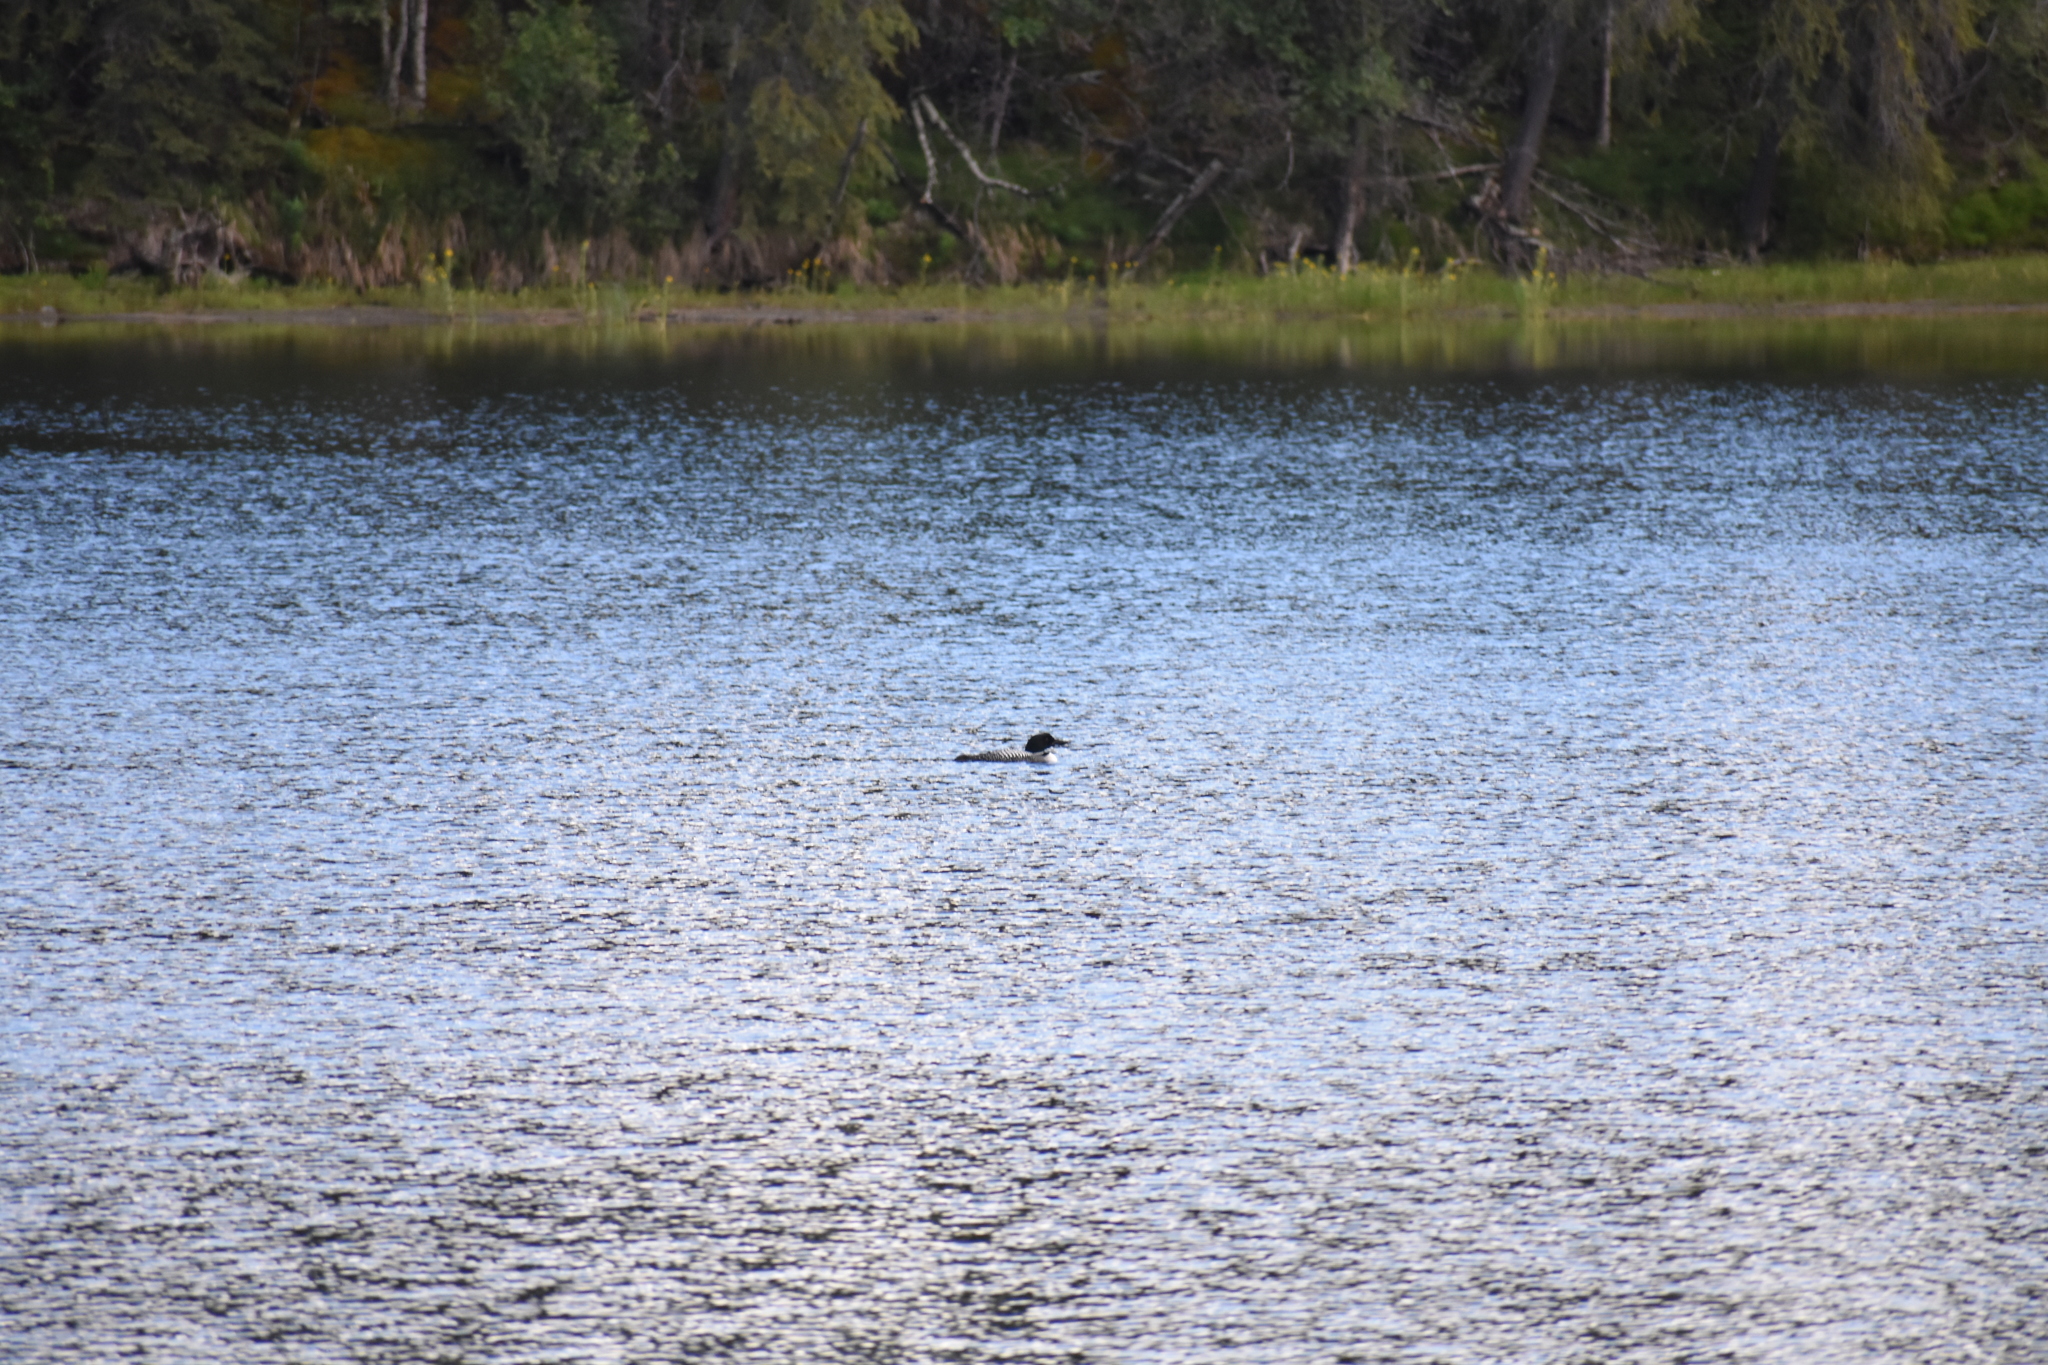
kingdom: Animalia
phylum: Chordata
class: Aves
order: Gaviiformes
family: Gaviidae
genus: Gavia
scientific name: Gavia immer
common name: Common loon
